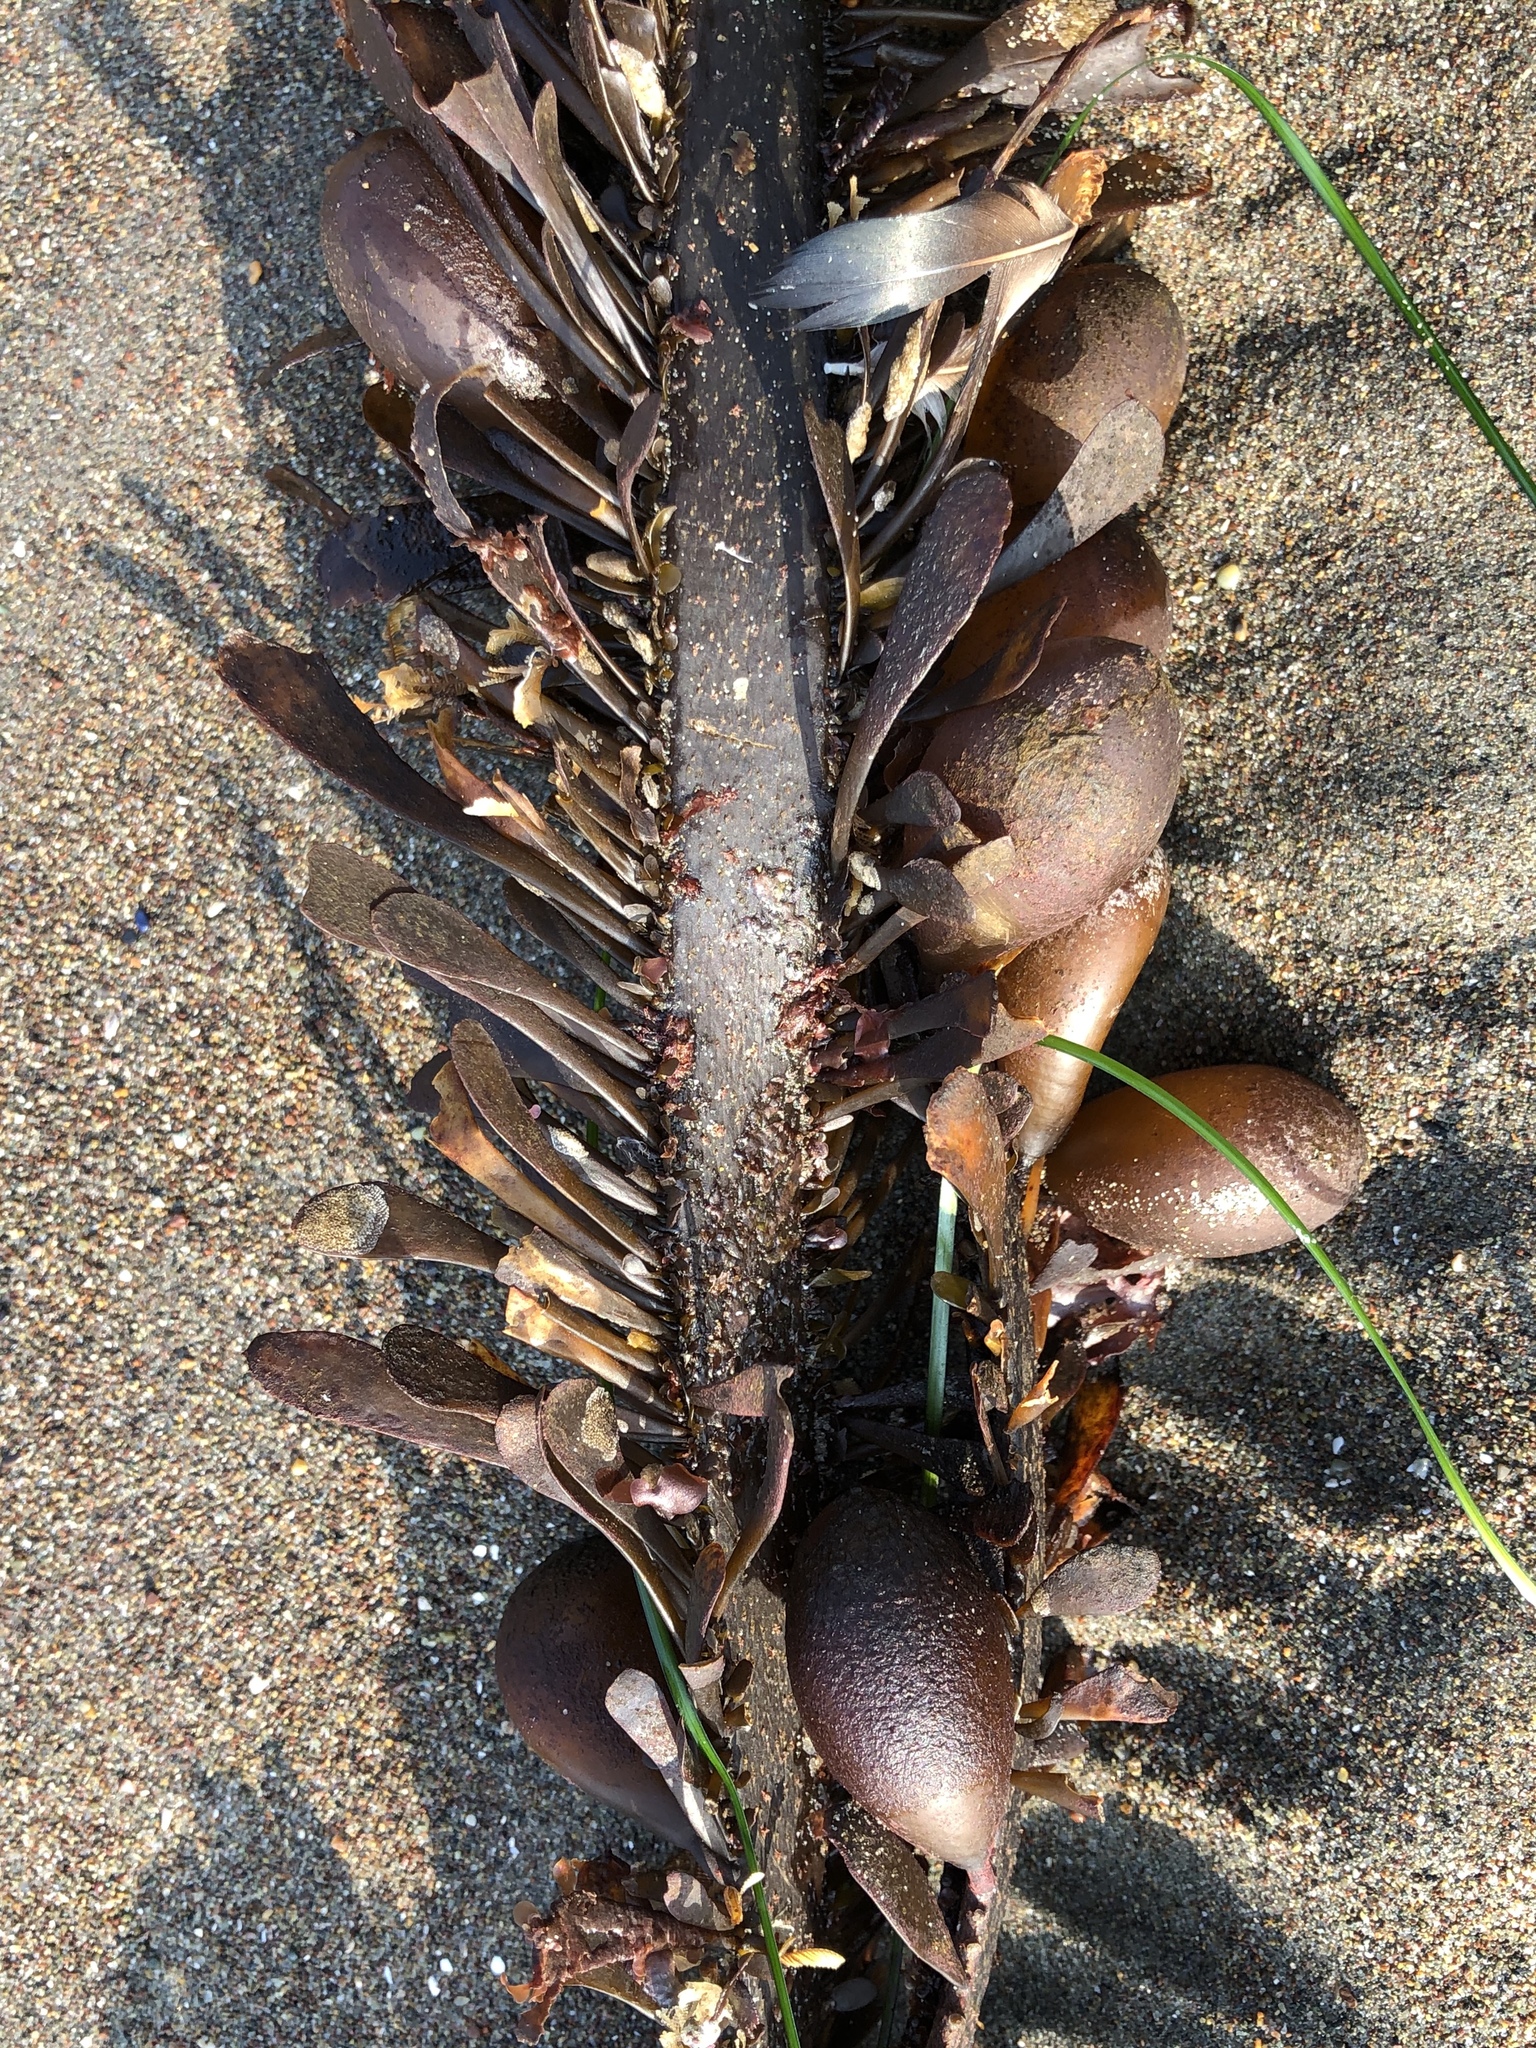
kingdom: Chromista
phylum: Ochrophyta
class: Phaeophyceae
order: Laminariales
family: Lessoniaceae
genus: Egregia
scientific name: Egregia menziesii
